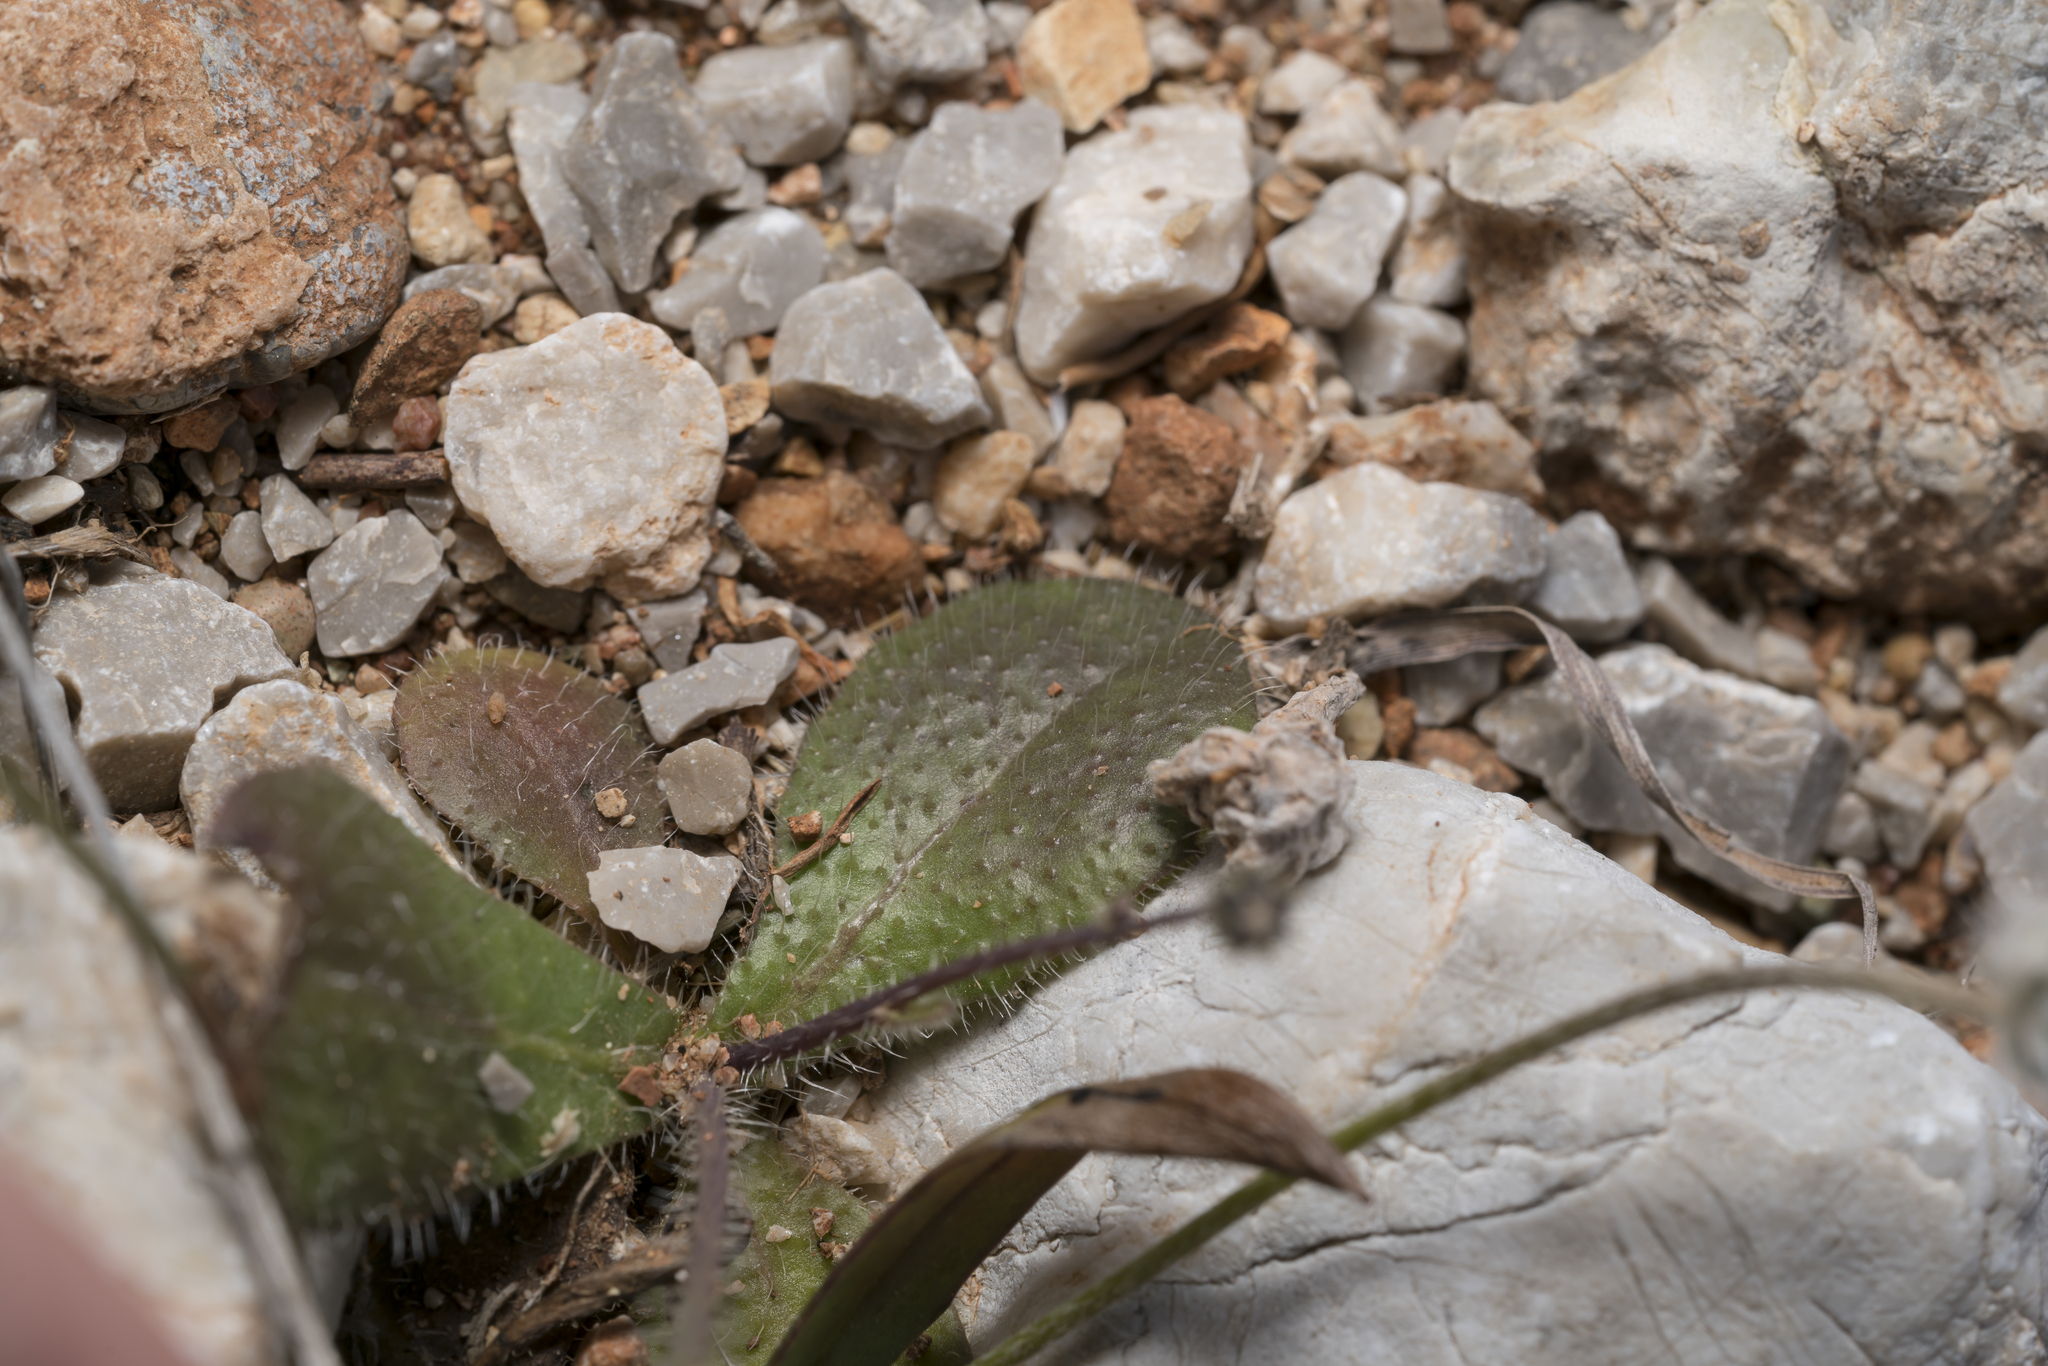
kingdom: Plantae
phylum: Tracheophyta
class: Magnoliopsida
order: Asterales
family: Asteraceae
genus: Achyrophorus
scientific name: Achyrophorus valdesii
